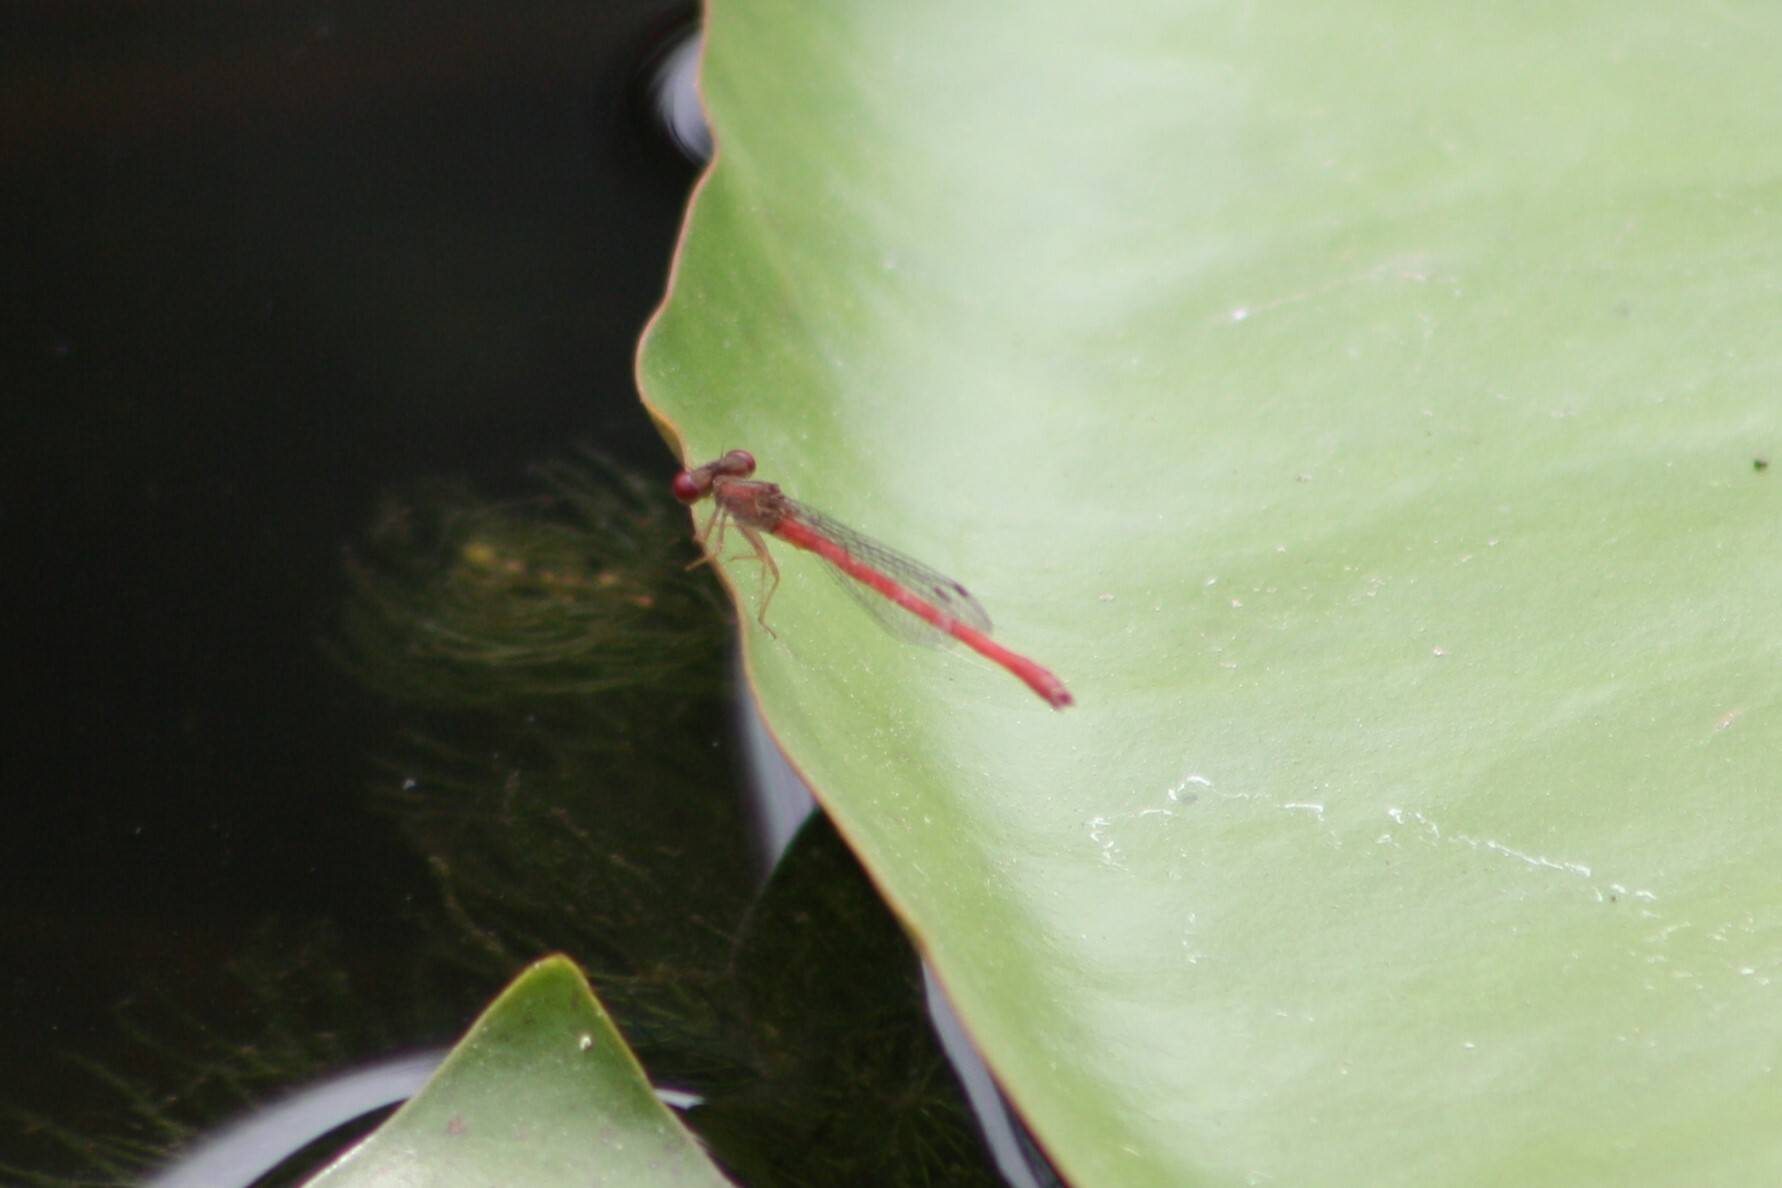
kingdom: Animalia
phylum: Arthropoda
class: Insecta
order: Odonata
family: Coenagrionidae
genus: Telebasis
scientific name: Telebasis salva
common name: Desert firetail
